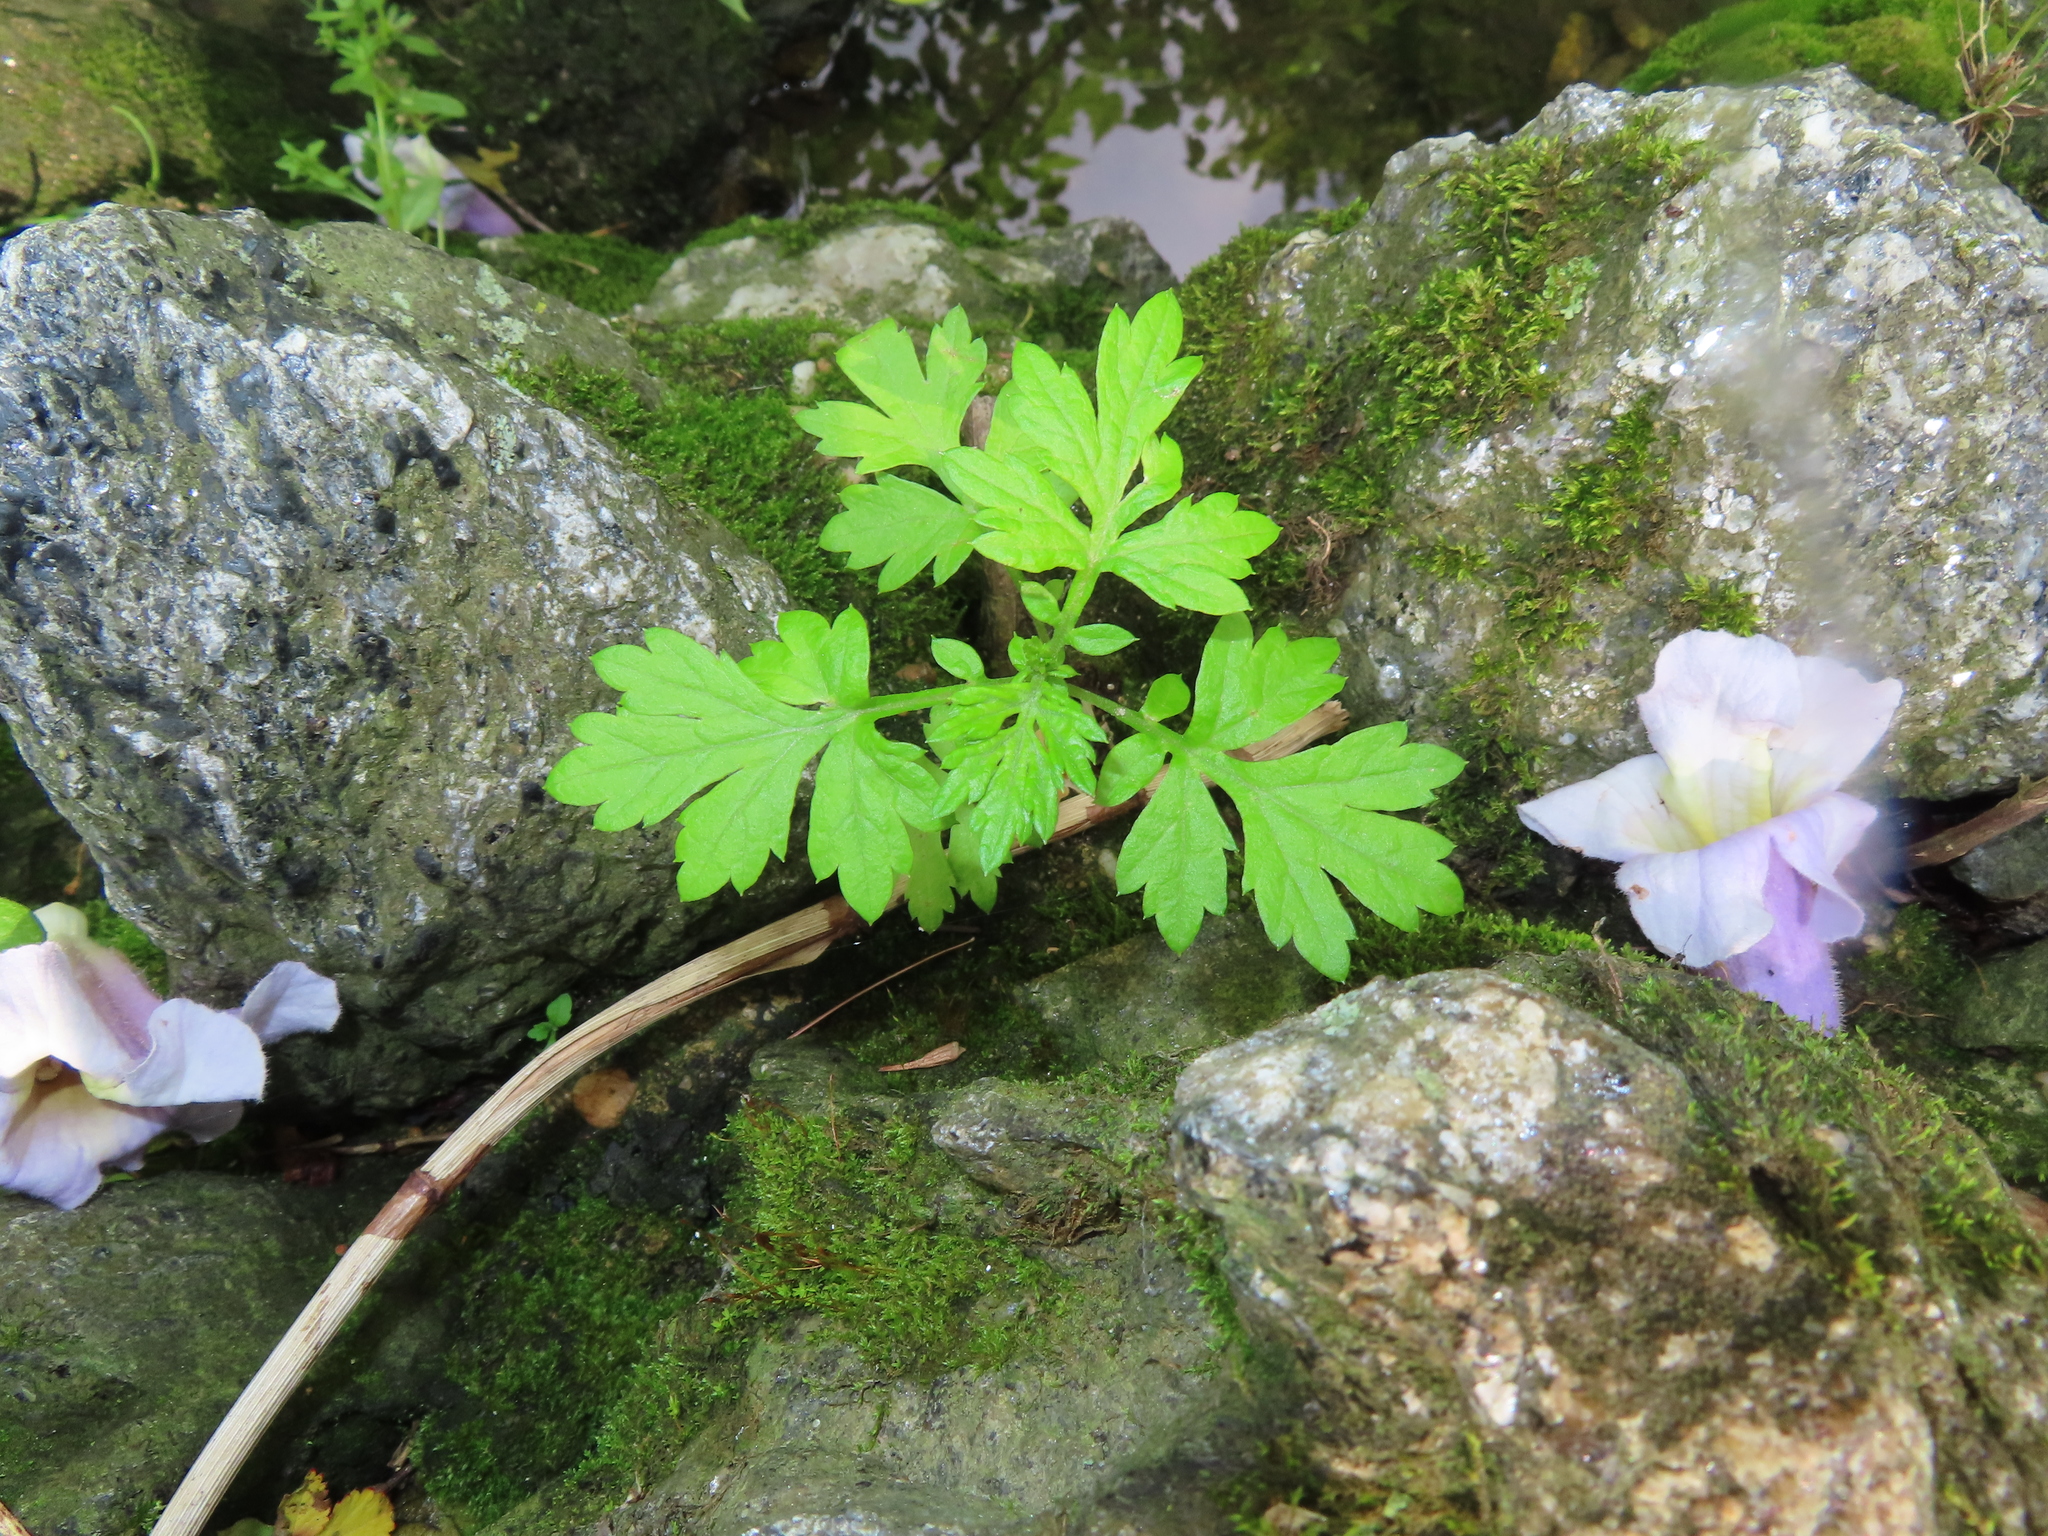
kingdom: Plantae
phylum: Tracheophyta
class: Magnoliopsida
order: Lamiales
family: Paulowniaceae
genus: Paulownia
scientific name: Paulownia tomentosa
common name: Foxglove-tree
